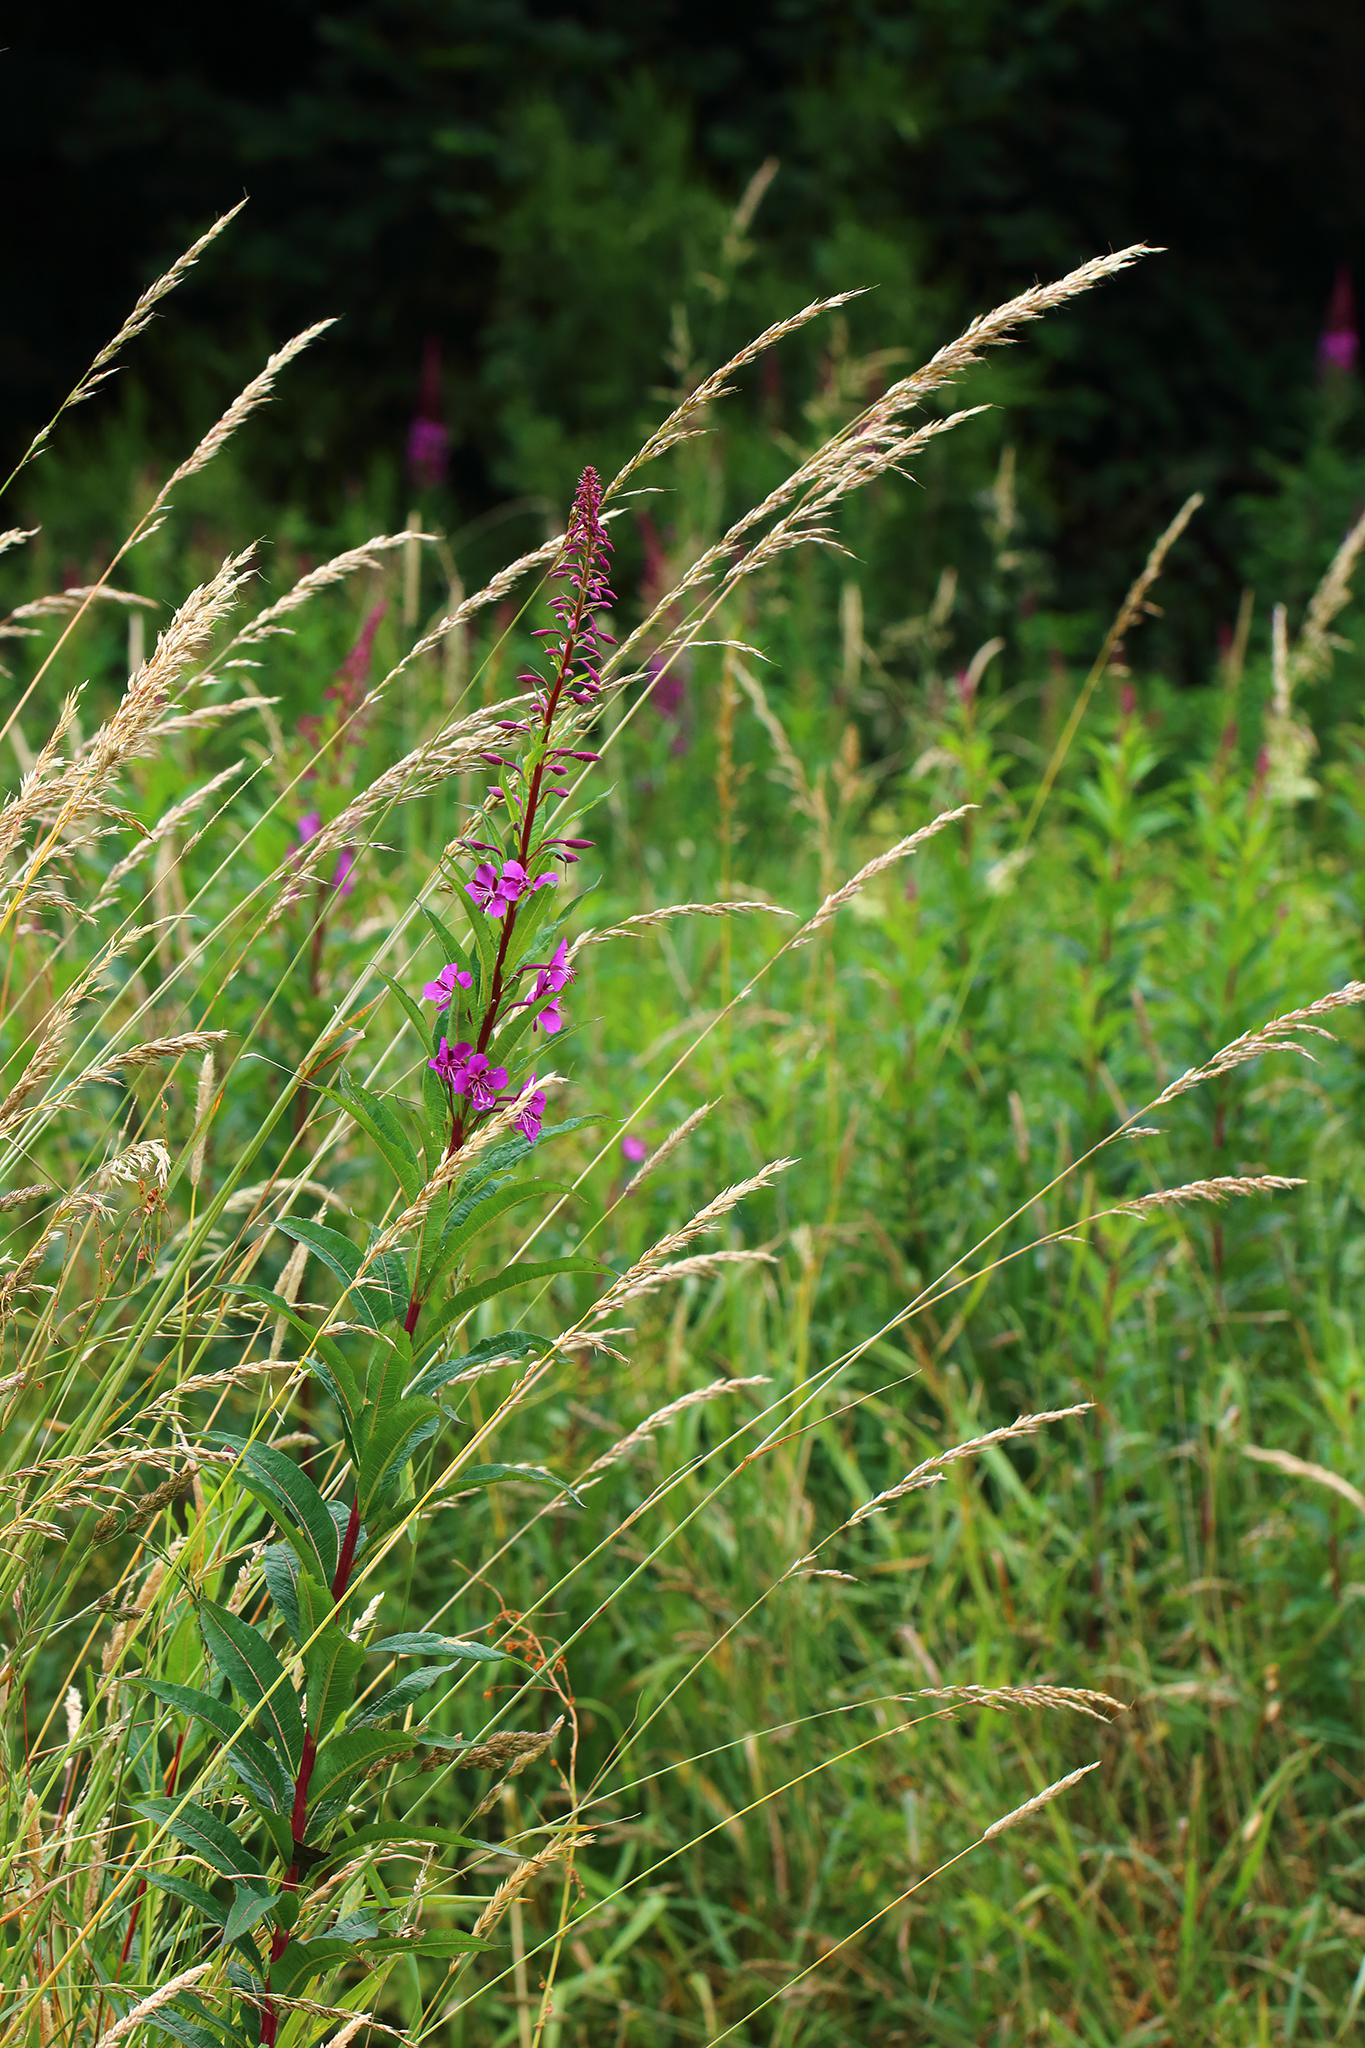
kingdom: Plantae
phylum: Tracheophyta
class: Magnoliopsida
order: Myrtales
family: Onagraceae
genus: Chamaenerion
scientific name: Chamaenerion angustifolium
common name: Fireweed
